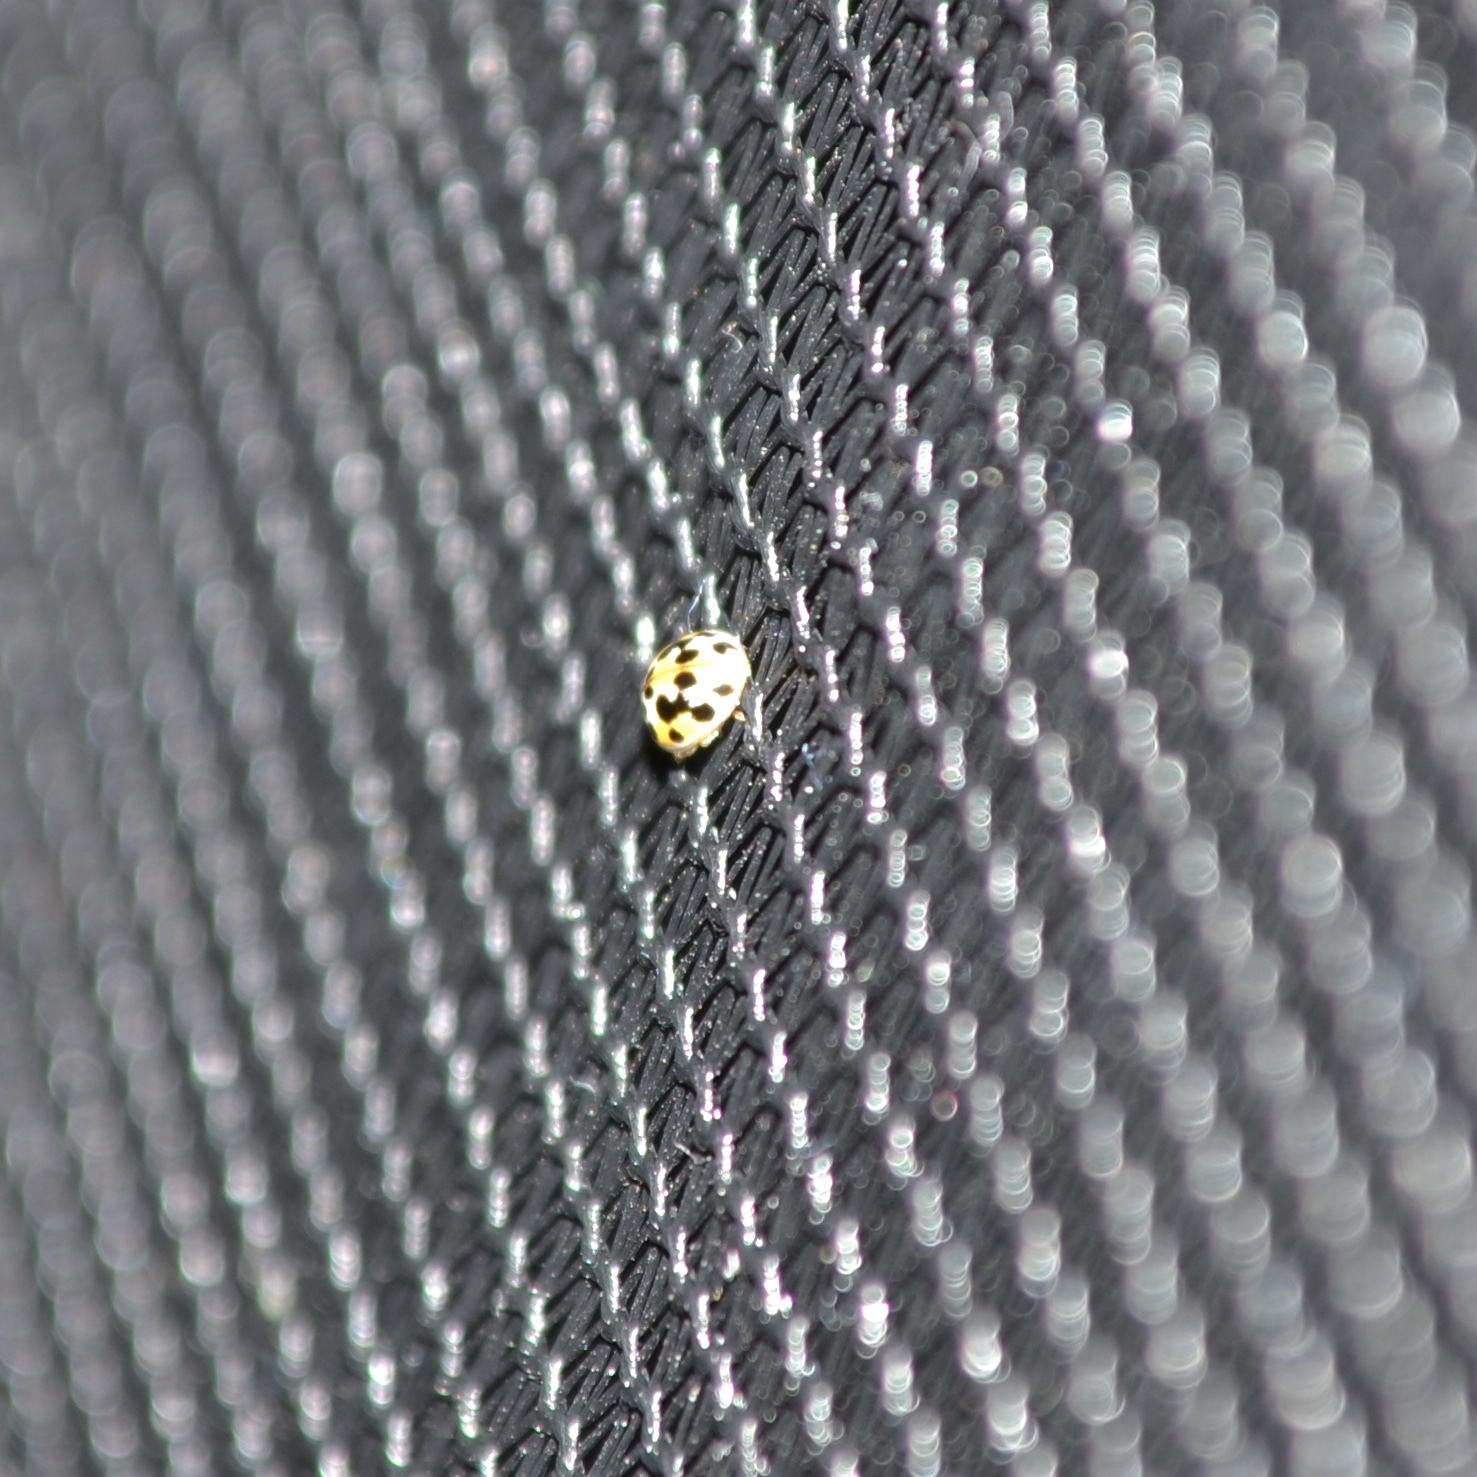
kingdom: Animalia
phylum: Arthropoda
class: Insecta
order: Coleoptera
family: Coccinellidae
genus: Psyllobora
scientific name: Psyllobora vigintimaculata
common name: Ladybird beetle
